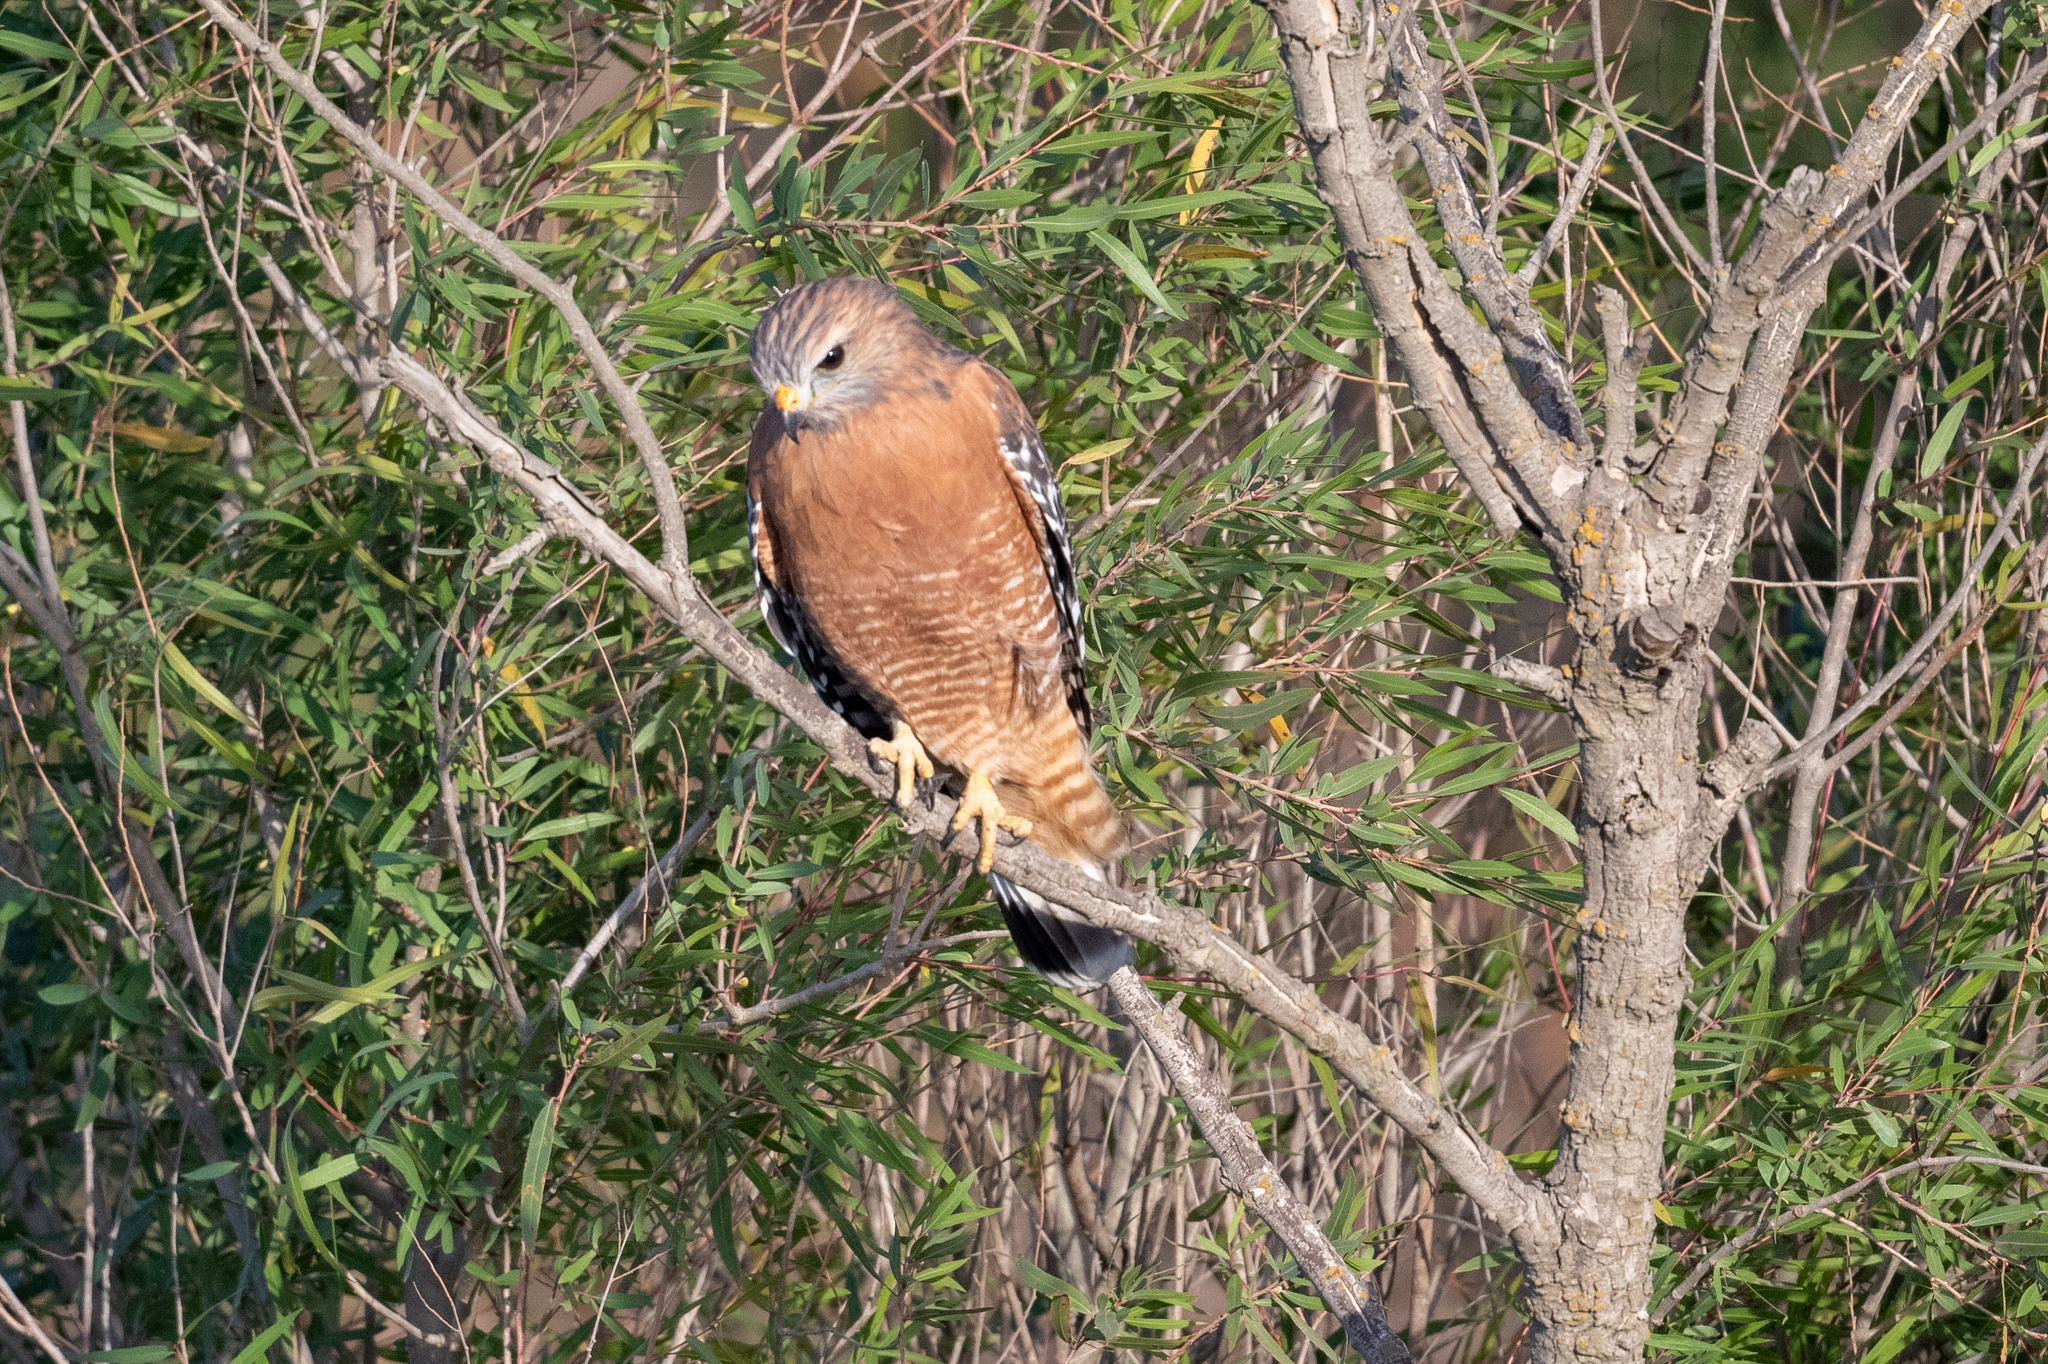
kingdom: Animalia
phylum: Chordata
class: Aves
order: Accipitriformes
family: Accipitridae
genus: Buteo
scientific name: Buteo lineatus
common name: Red-shouldered hawk
